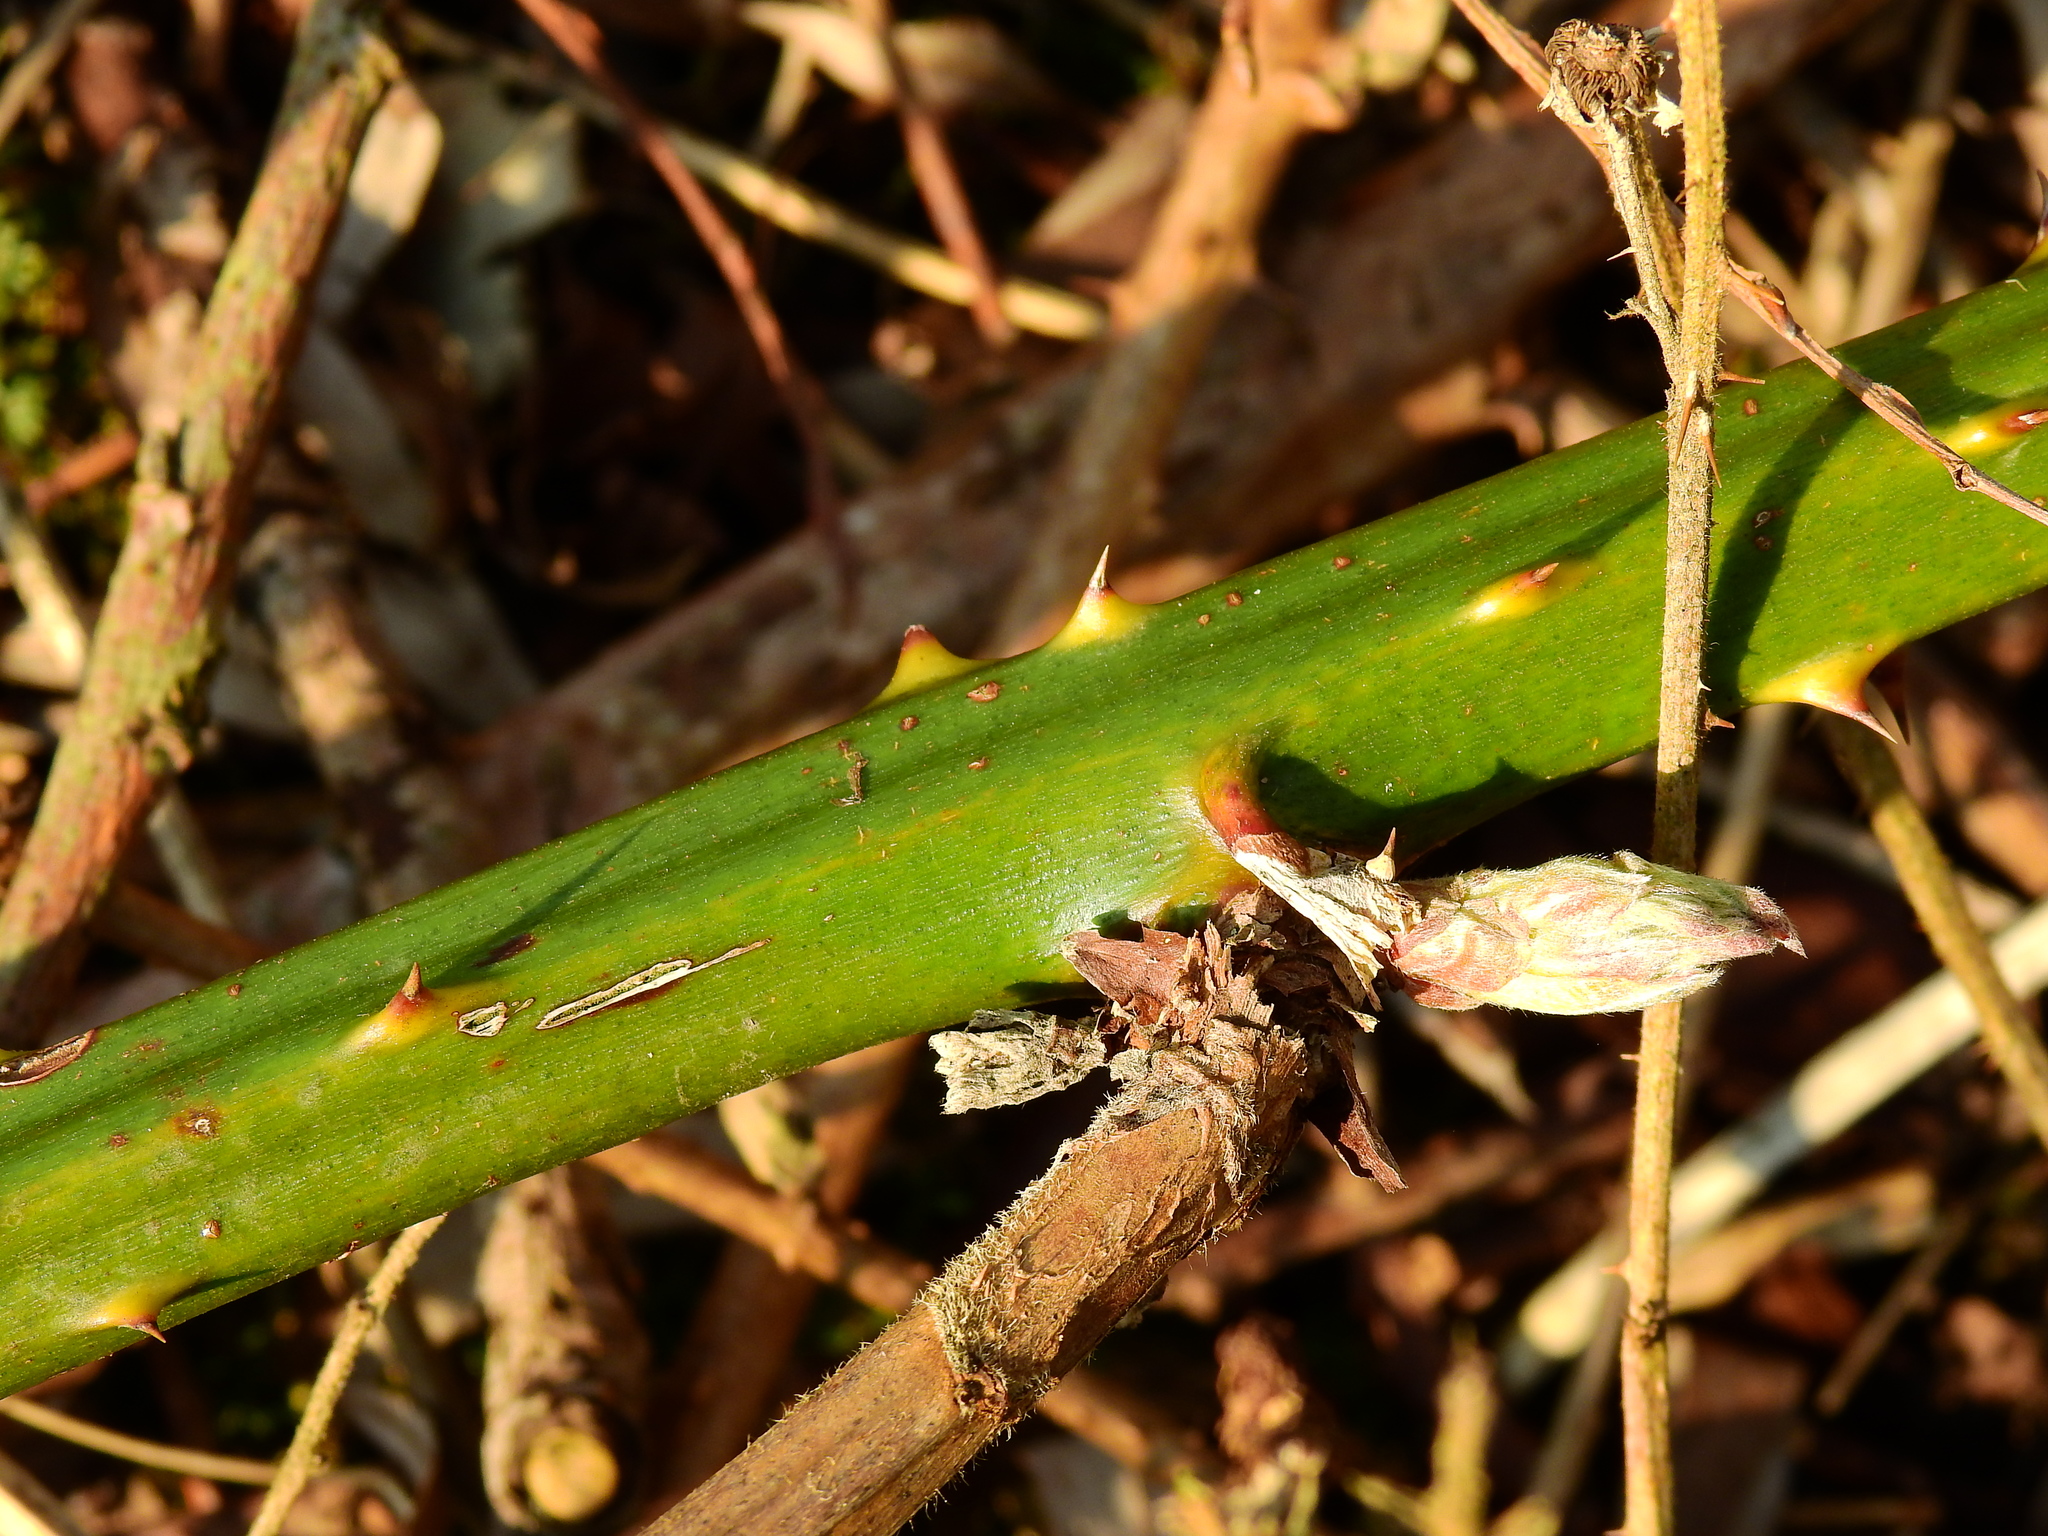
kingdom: Plantae
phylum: Tracheophyta
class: Magnoliopsida
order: Rosales
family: Rosaceae
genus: Rubus
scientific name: Rubus armeniacus
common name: Himalayan blackberry
